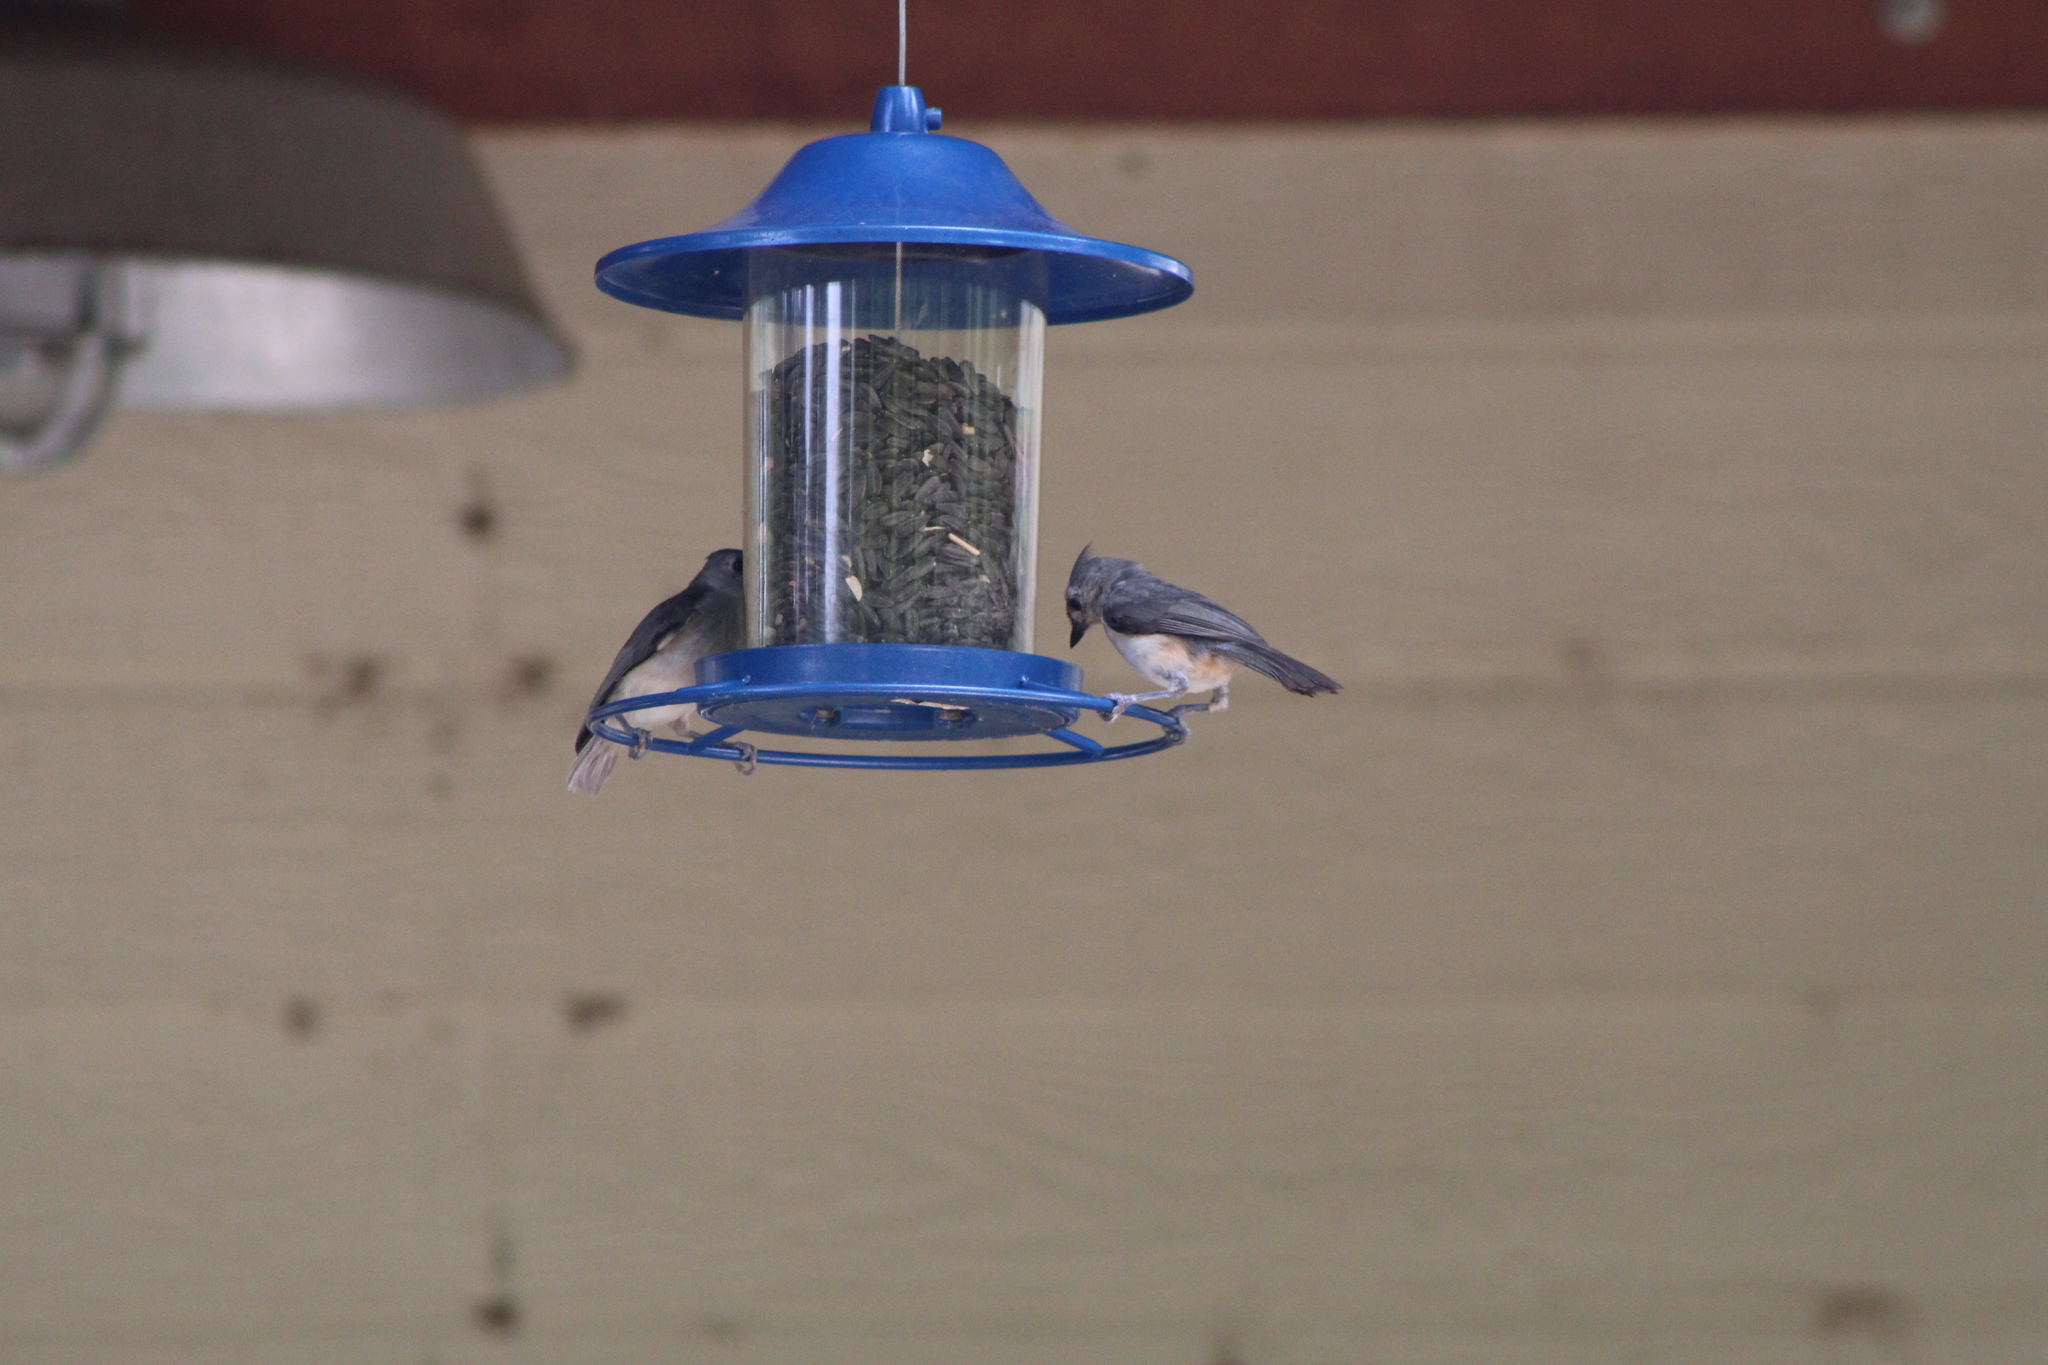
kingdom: Animalia
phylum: Chordata
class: Aves
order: Passeriformes
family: Paridae
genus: Baeolophus
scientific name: Baeolophus bicolor
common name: Tufted titmouse
